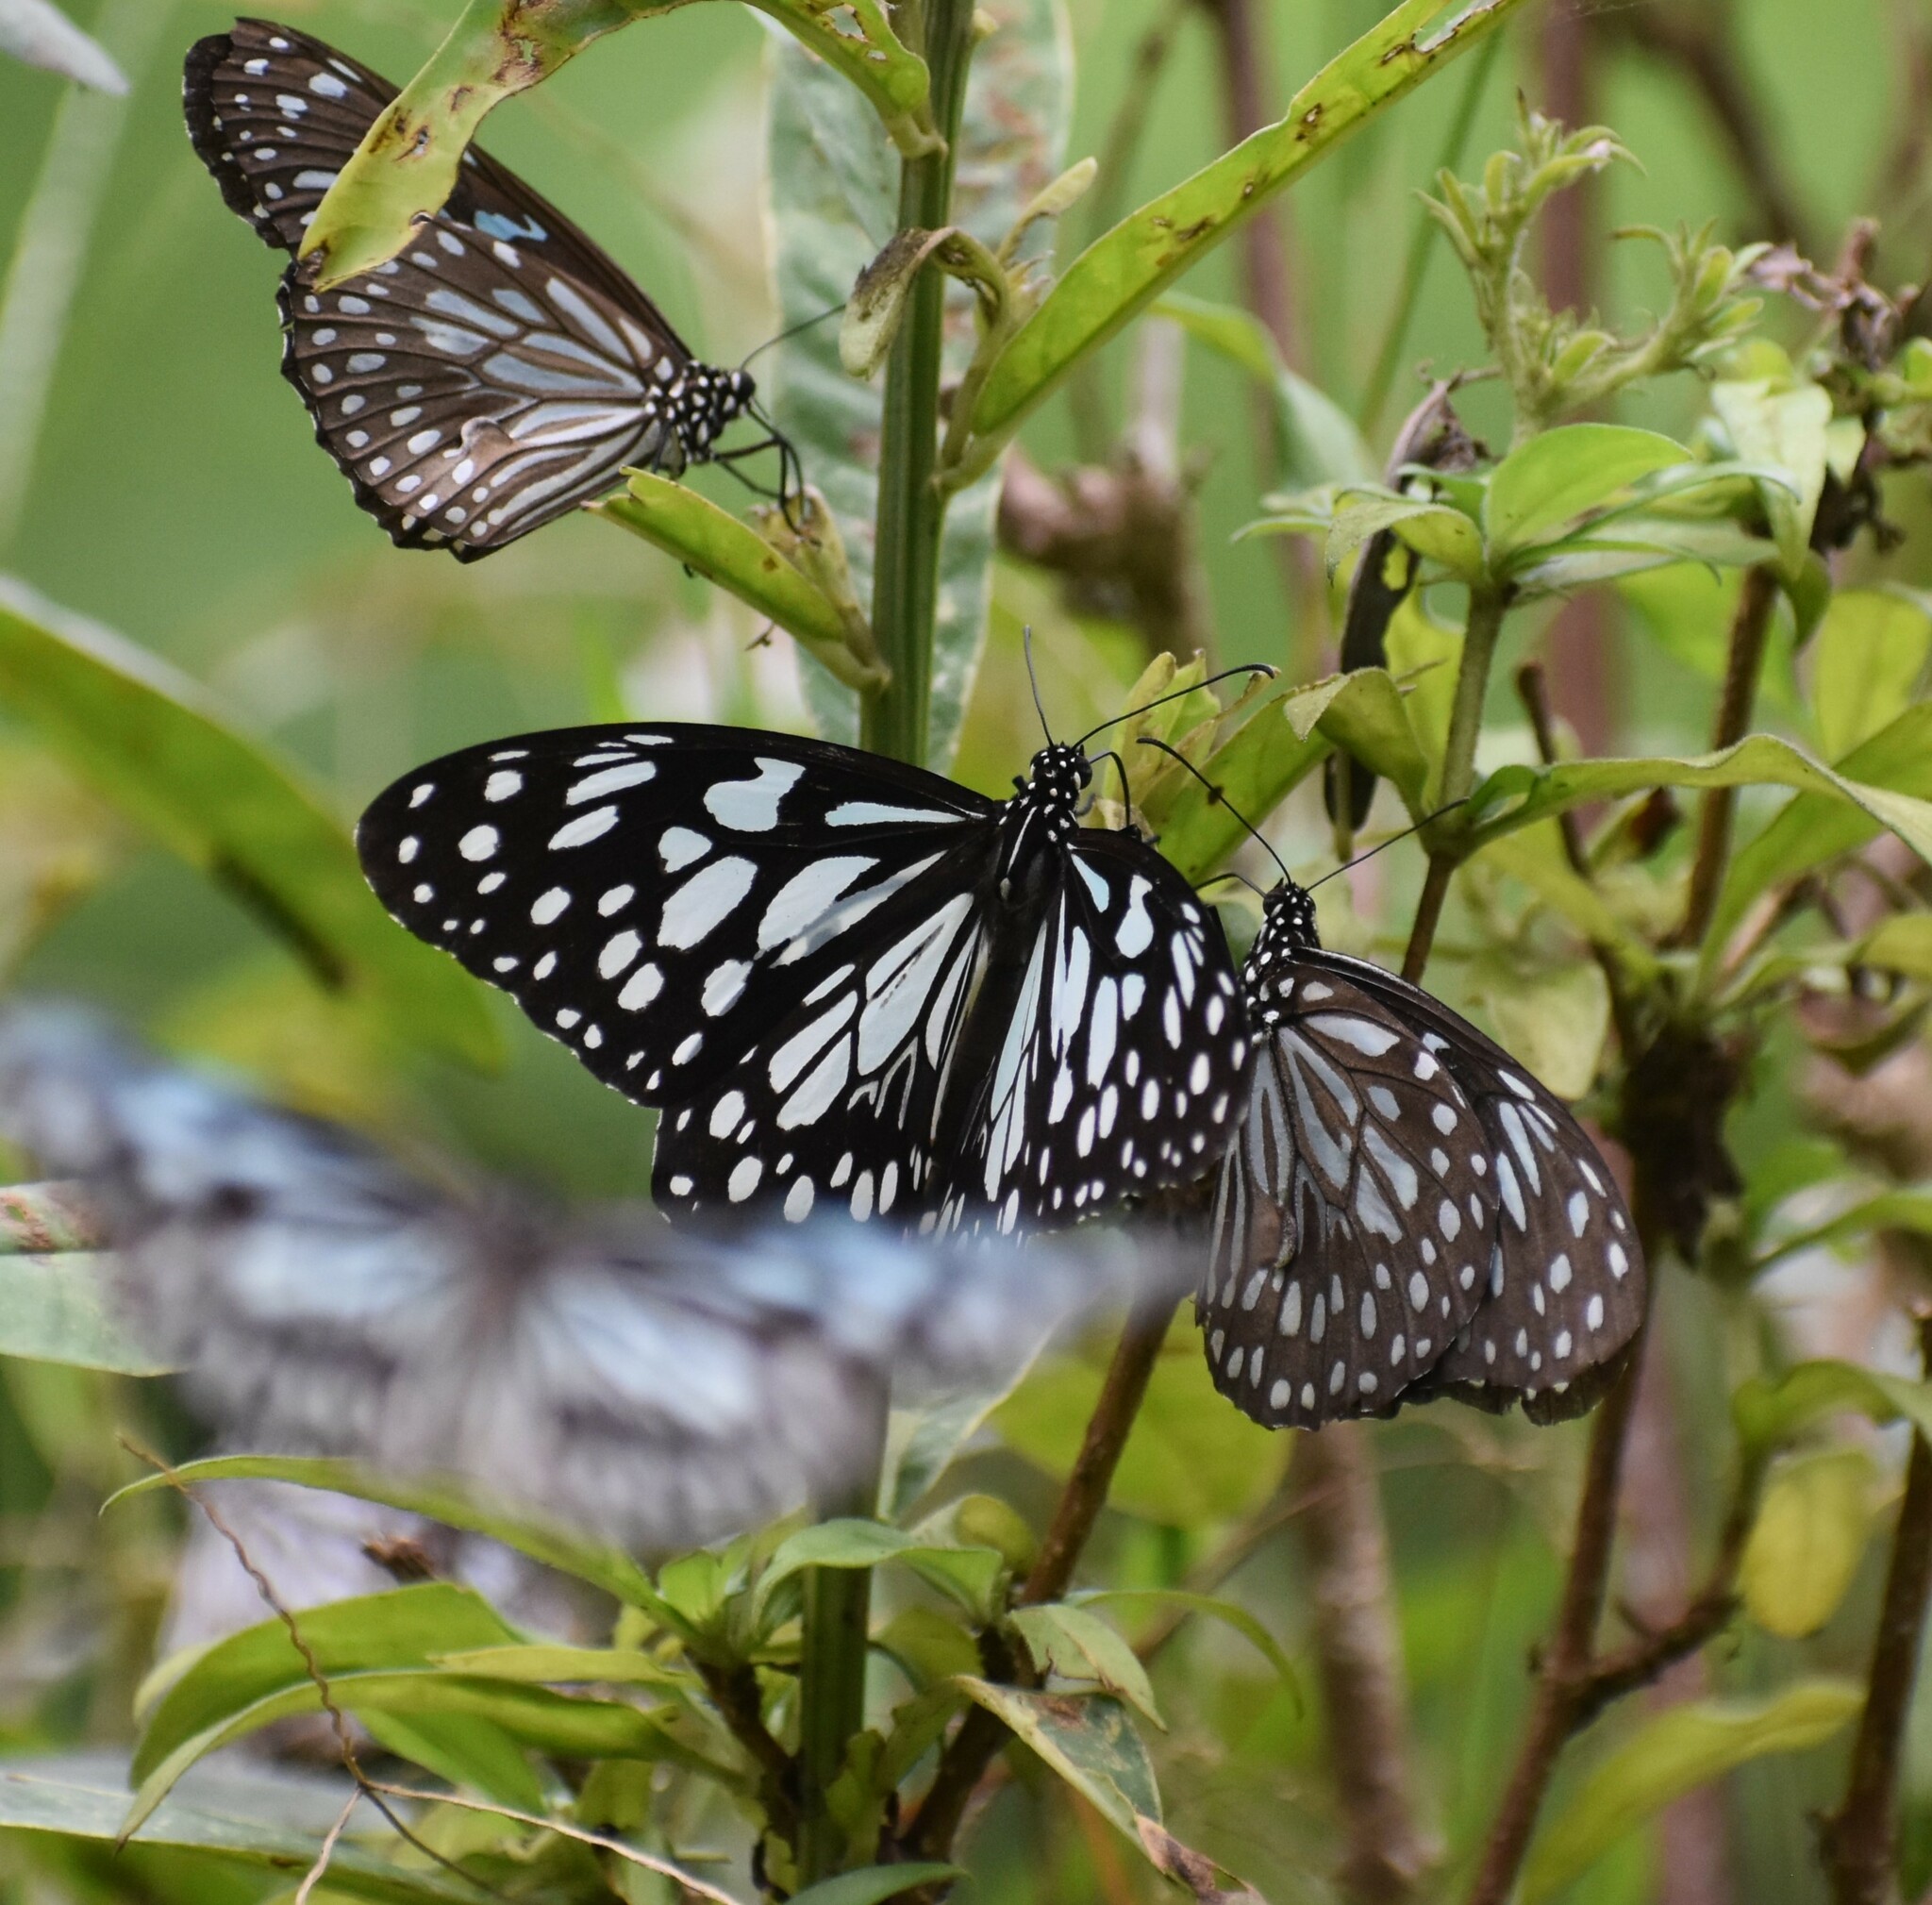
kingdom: Animalia
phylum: Arthropoda
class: Insecta
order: Lepidoptera
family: Nymphalidae
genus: Tirumala
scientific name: Tirumala limniace
